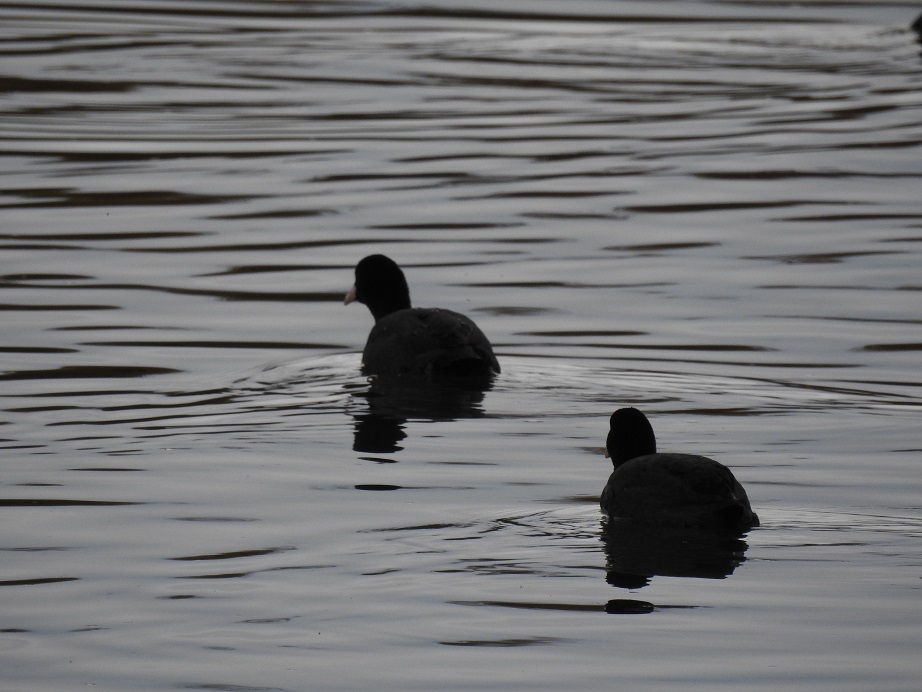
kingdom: Animalia
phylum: Chordata
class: Aves
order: Gruiformes
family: Rallidae
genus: Fulica
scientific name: Fulica atra
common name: Eurasian coot
